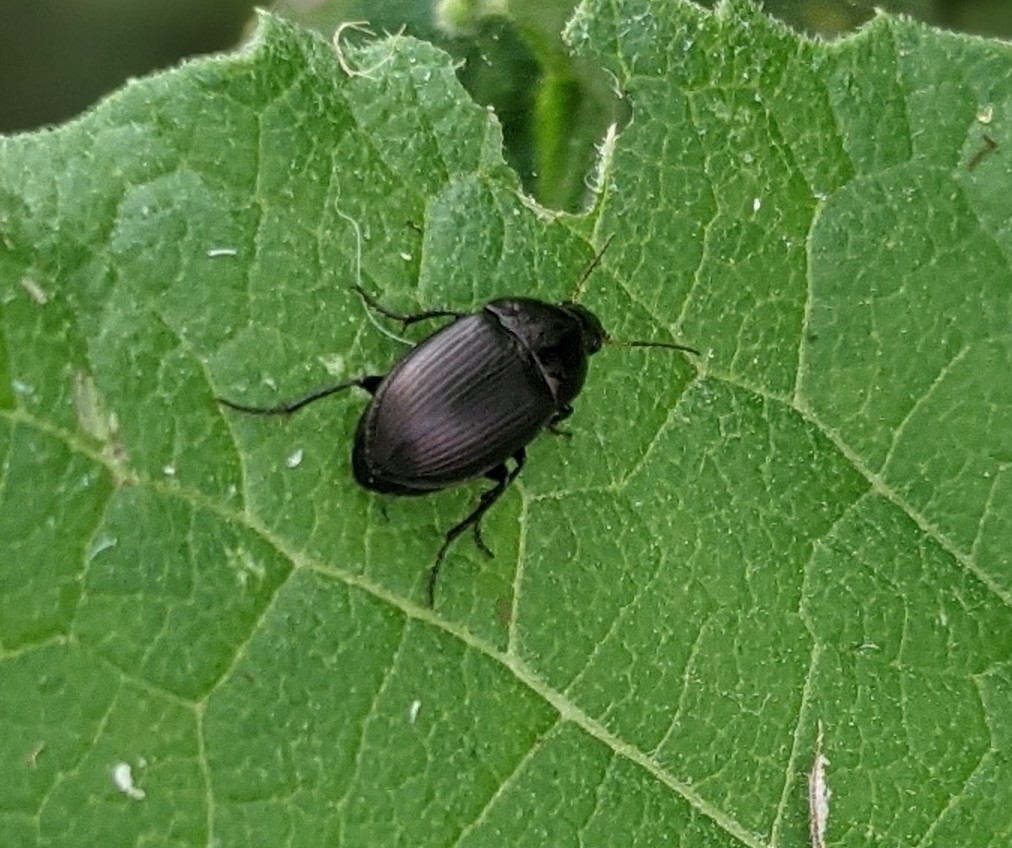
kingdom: Animalia
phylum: Arthropoda
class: Insecta
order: Coleoptera
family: Staphylinidae
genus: Silpha
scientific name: Silpha atrata
